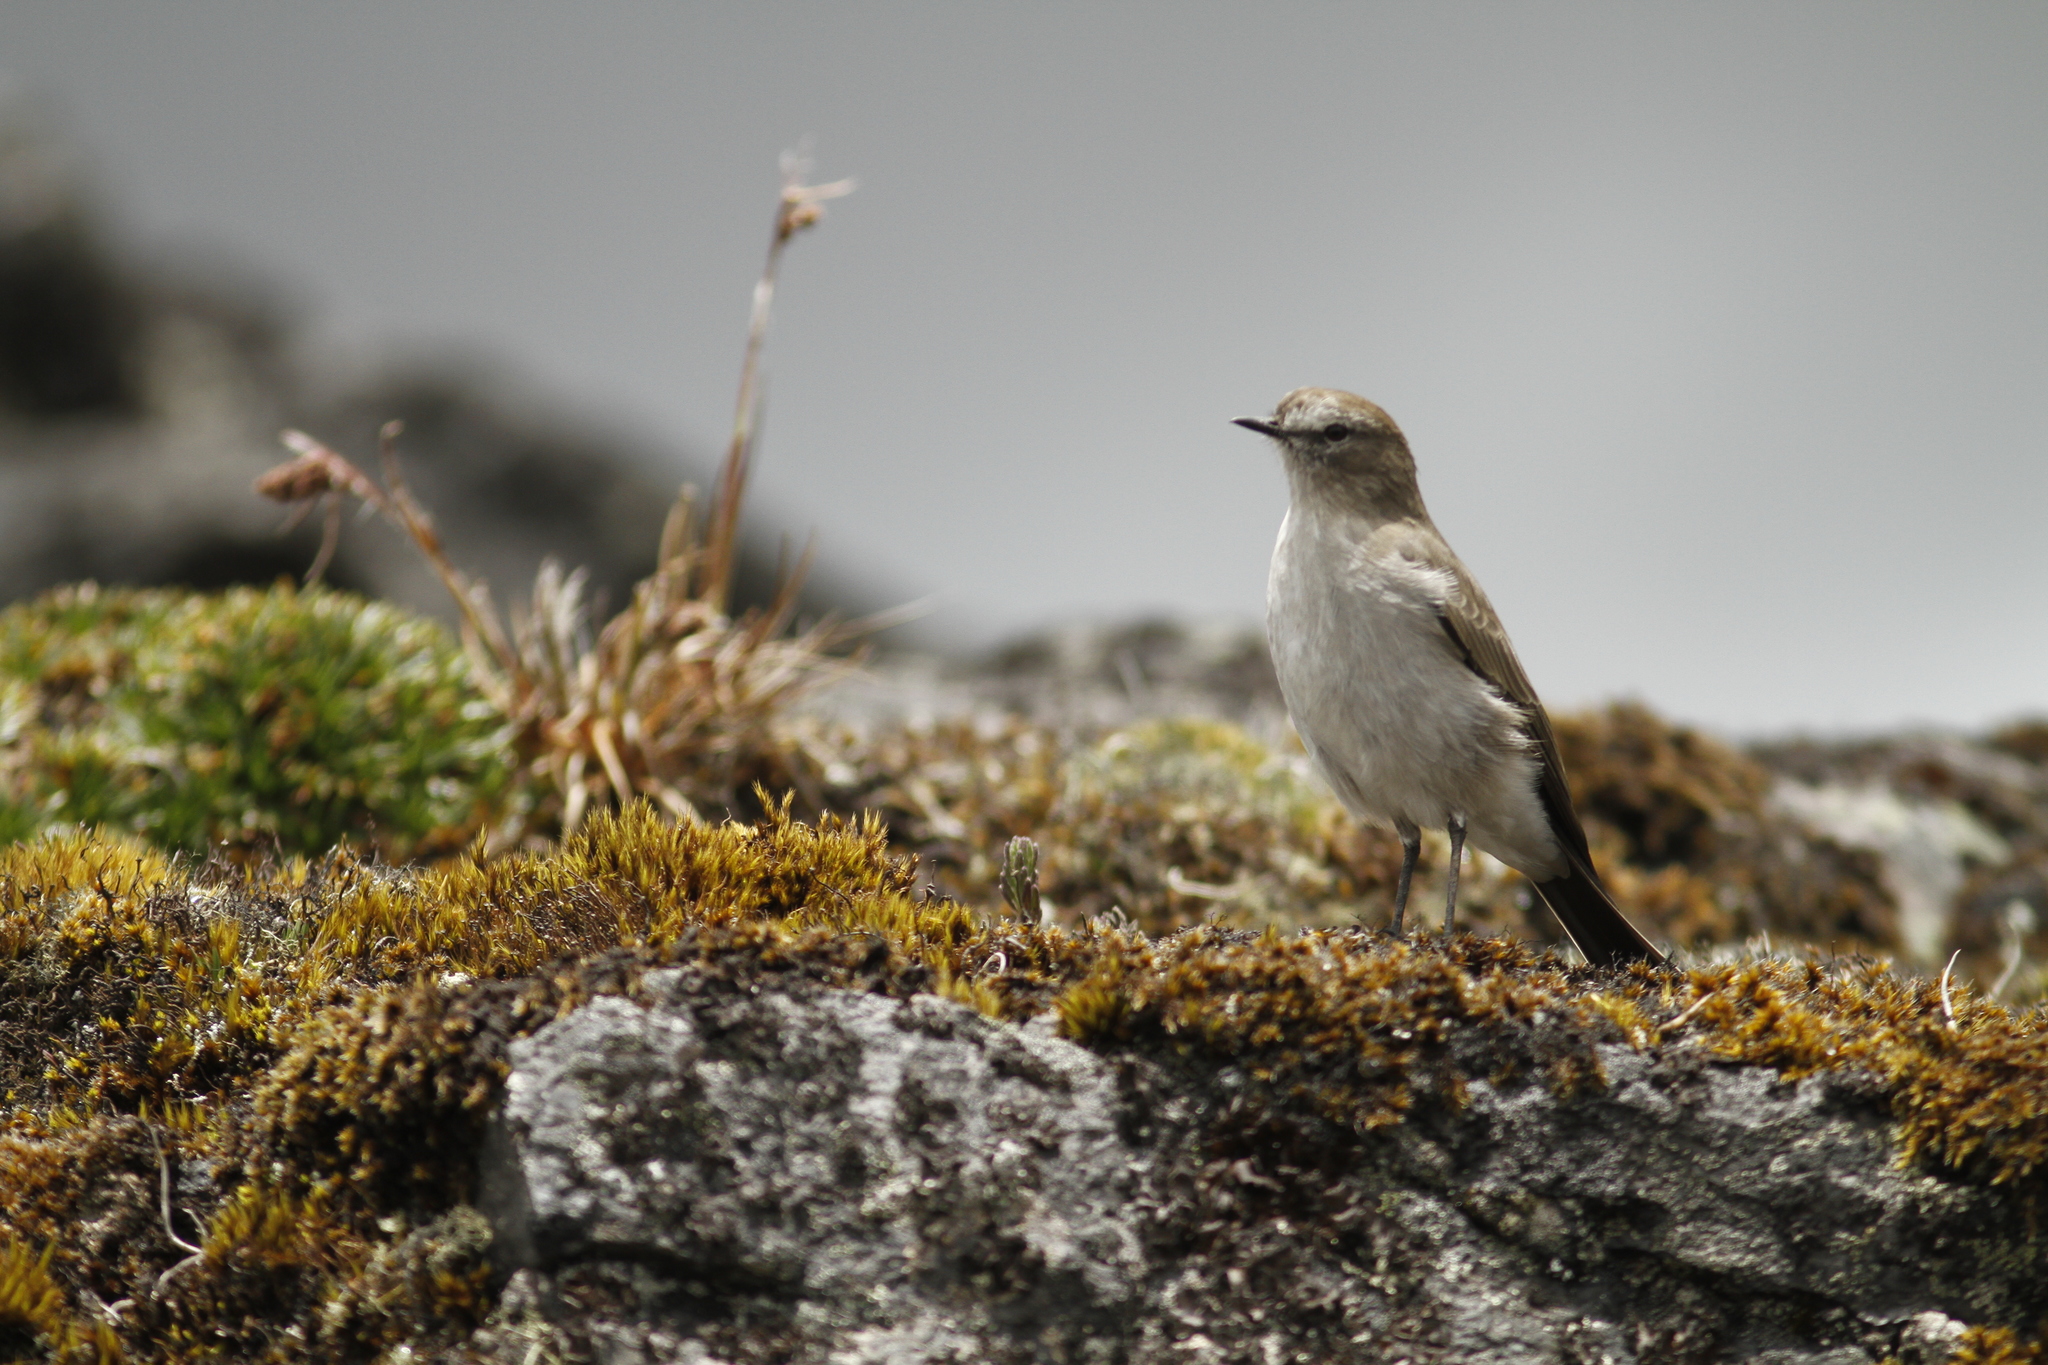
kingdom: Animalia
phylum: Chordata
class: Aves
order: Passeriformes
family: Tyrannidae
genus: Muscisaxicola
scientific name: Muscisaxicola alpinus
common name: Paramo ground tyrant
